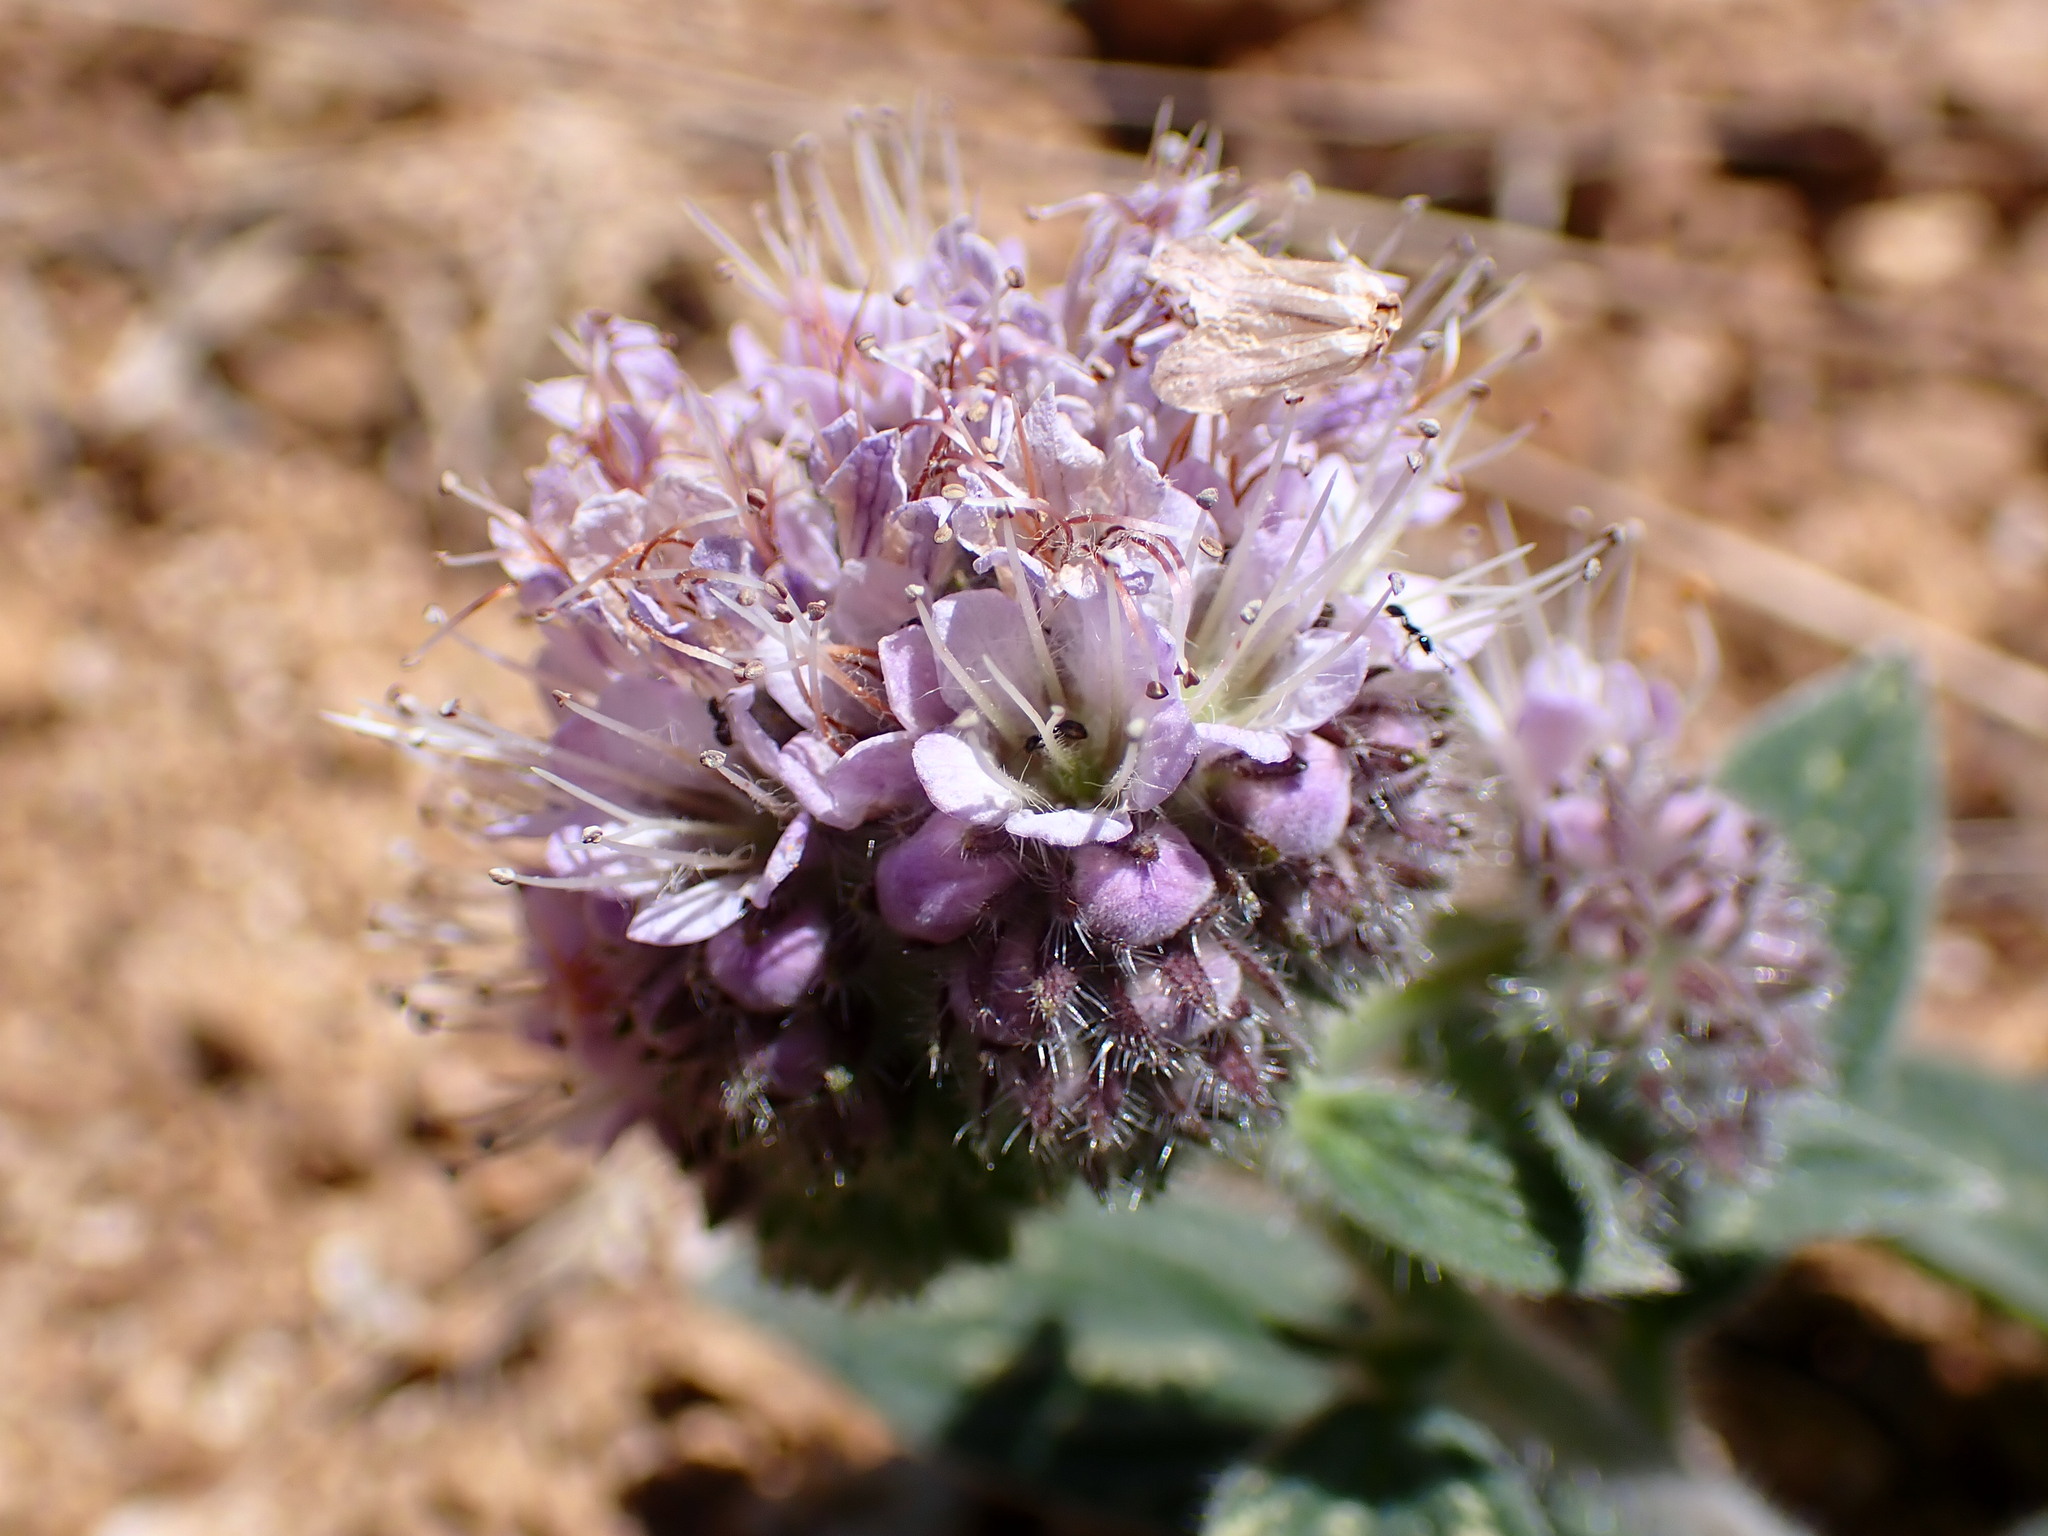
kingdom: Plantae
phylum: Tracheophyta
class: Magnoliopsida
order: Boraginales
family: Hydrophyllaceae
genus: Phacelia
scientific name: Phacelia californica
